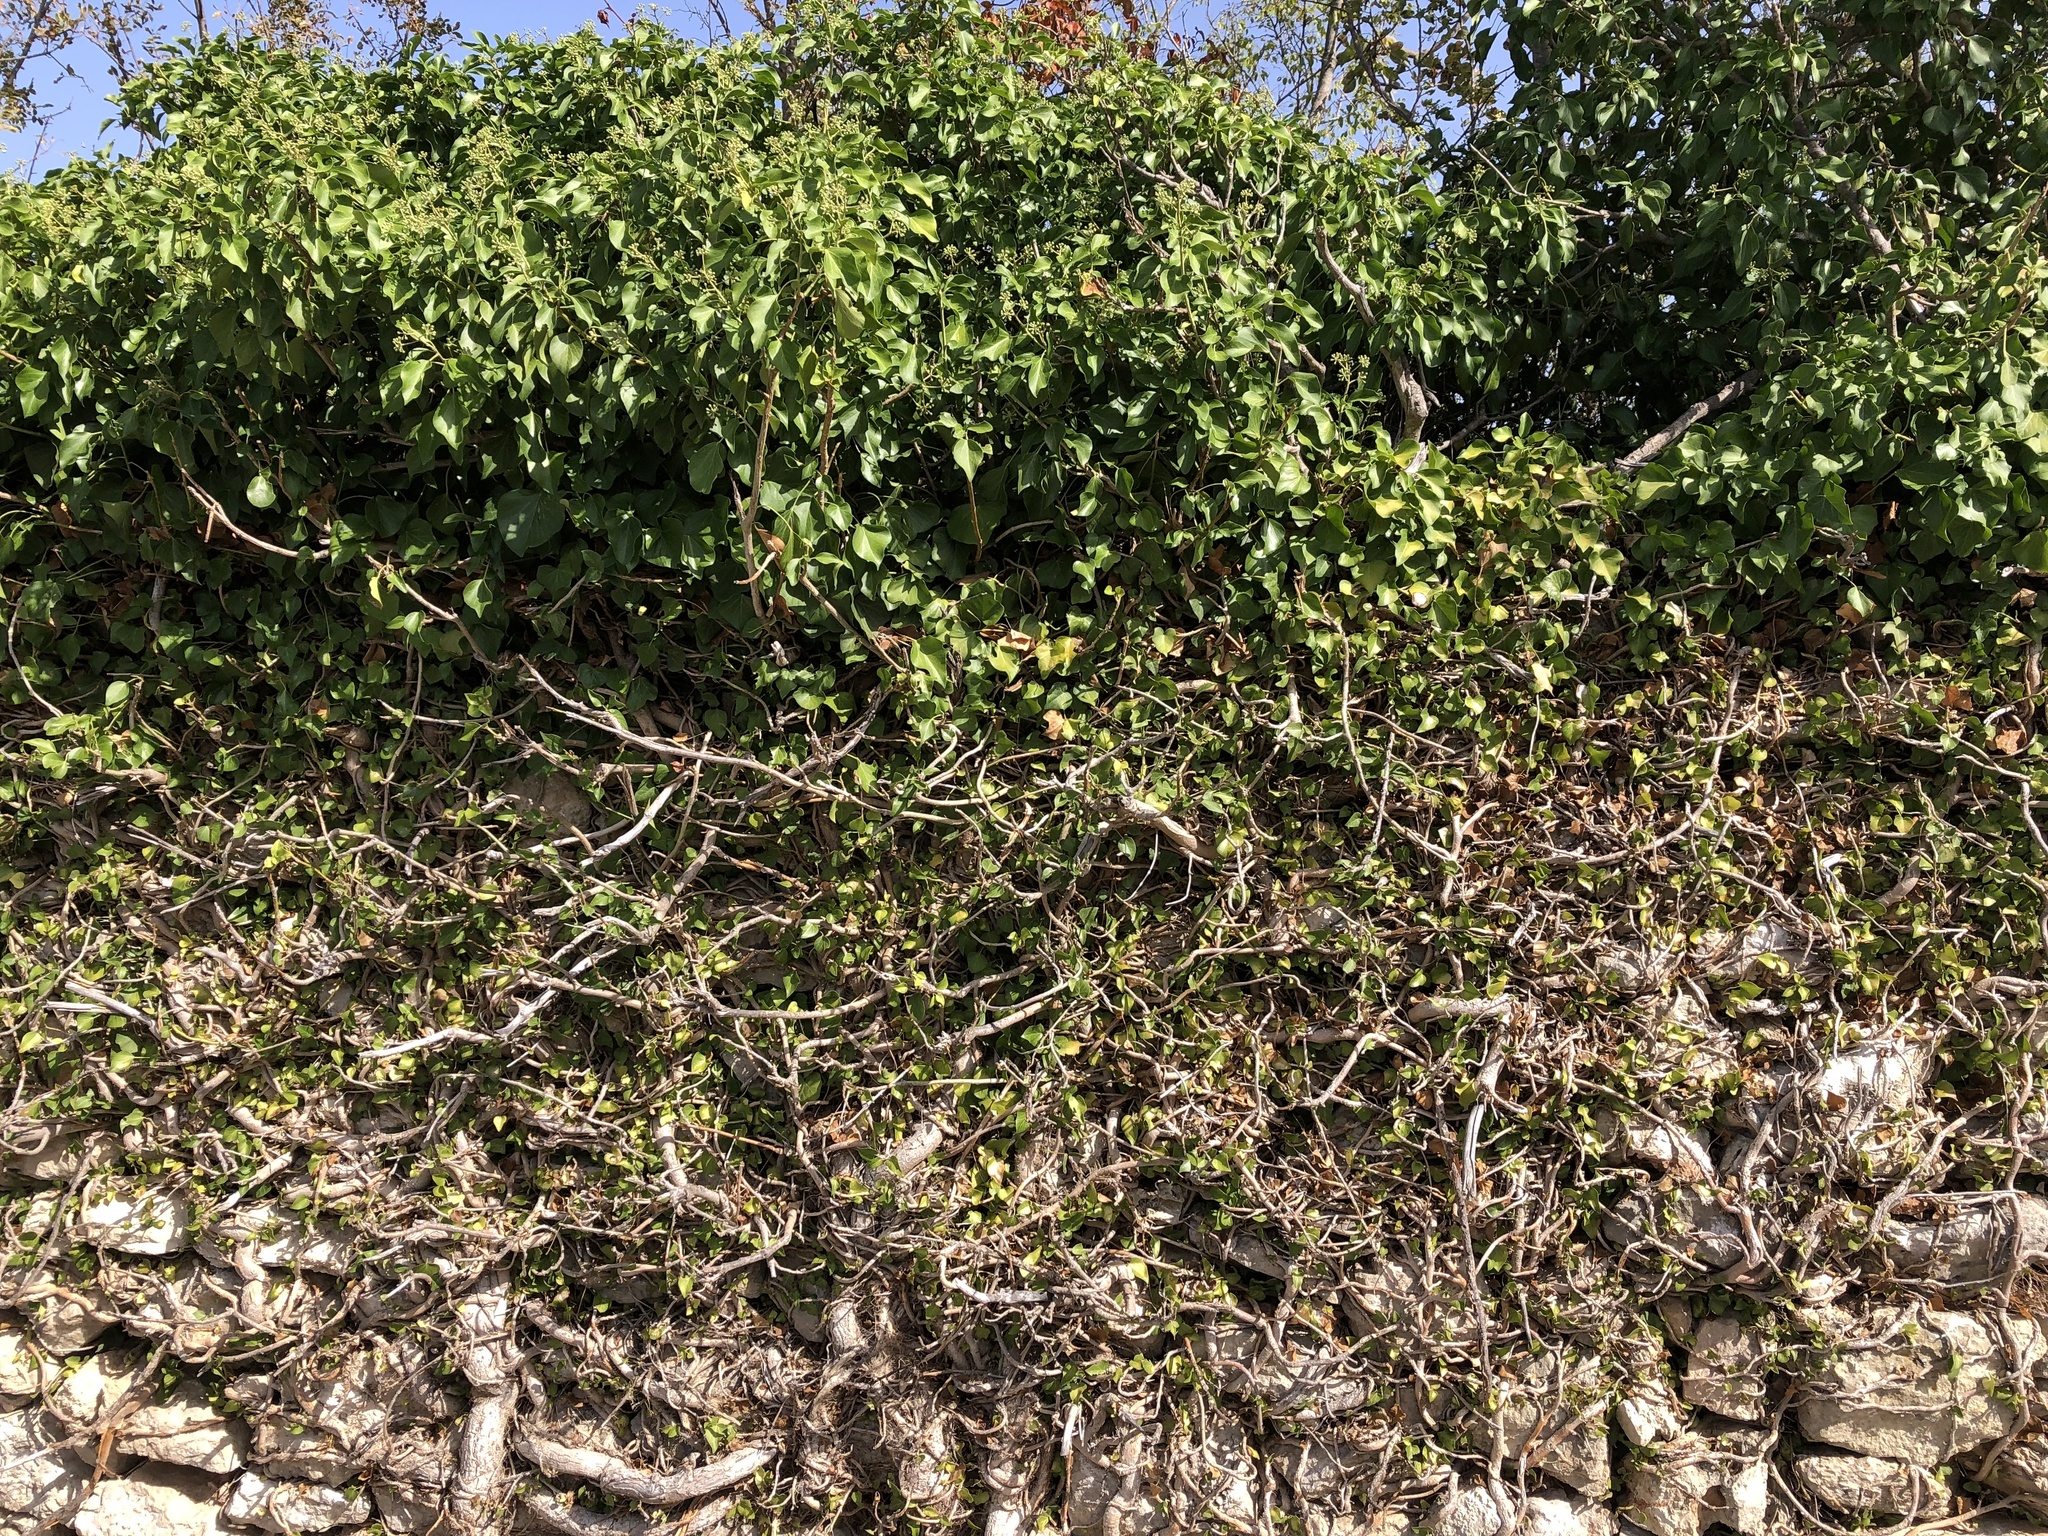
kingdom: Plantae
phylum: Tracheophyta
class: Magnoliopsida
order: Apiales
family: Araliaceae
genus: Hedera
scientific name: Hedera helix
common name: Ivy
